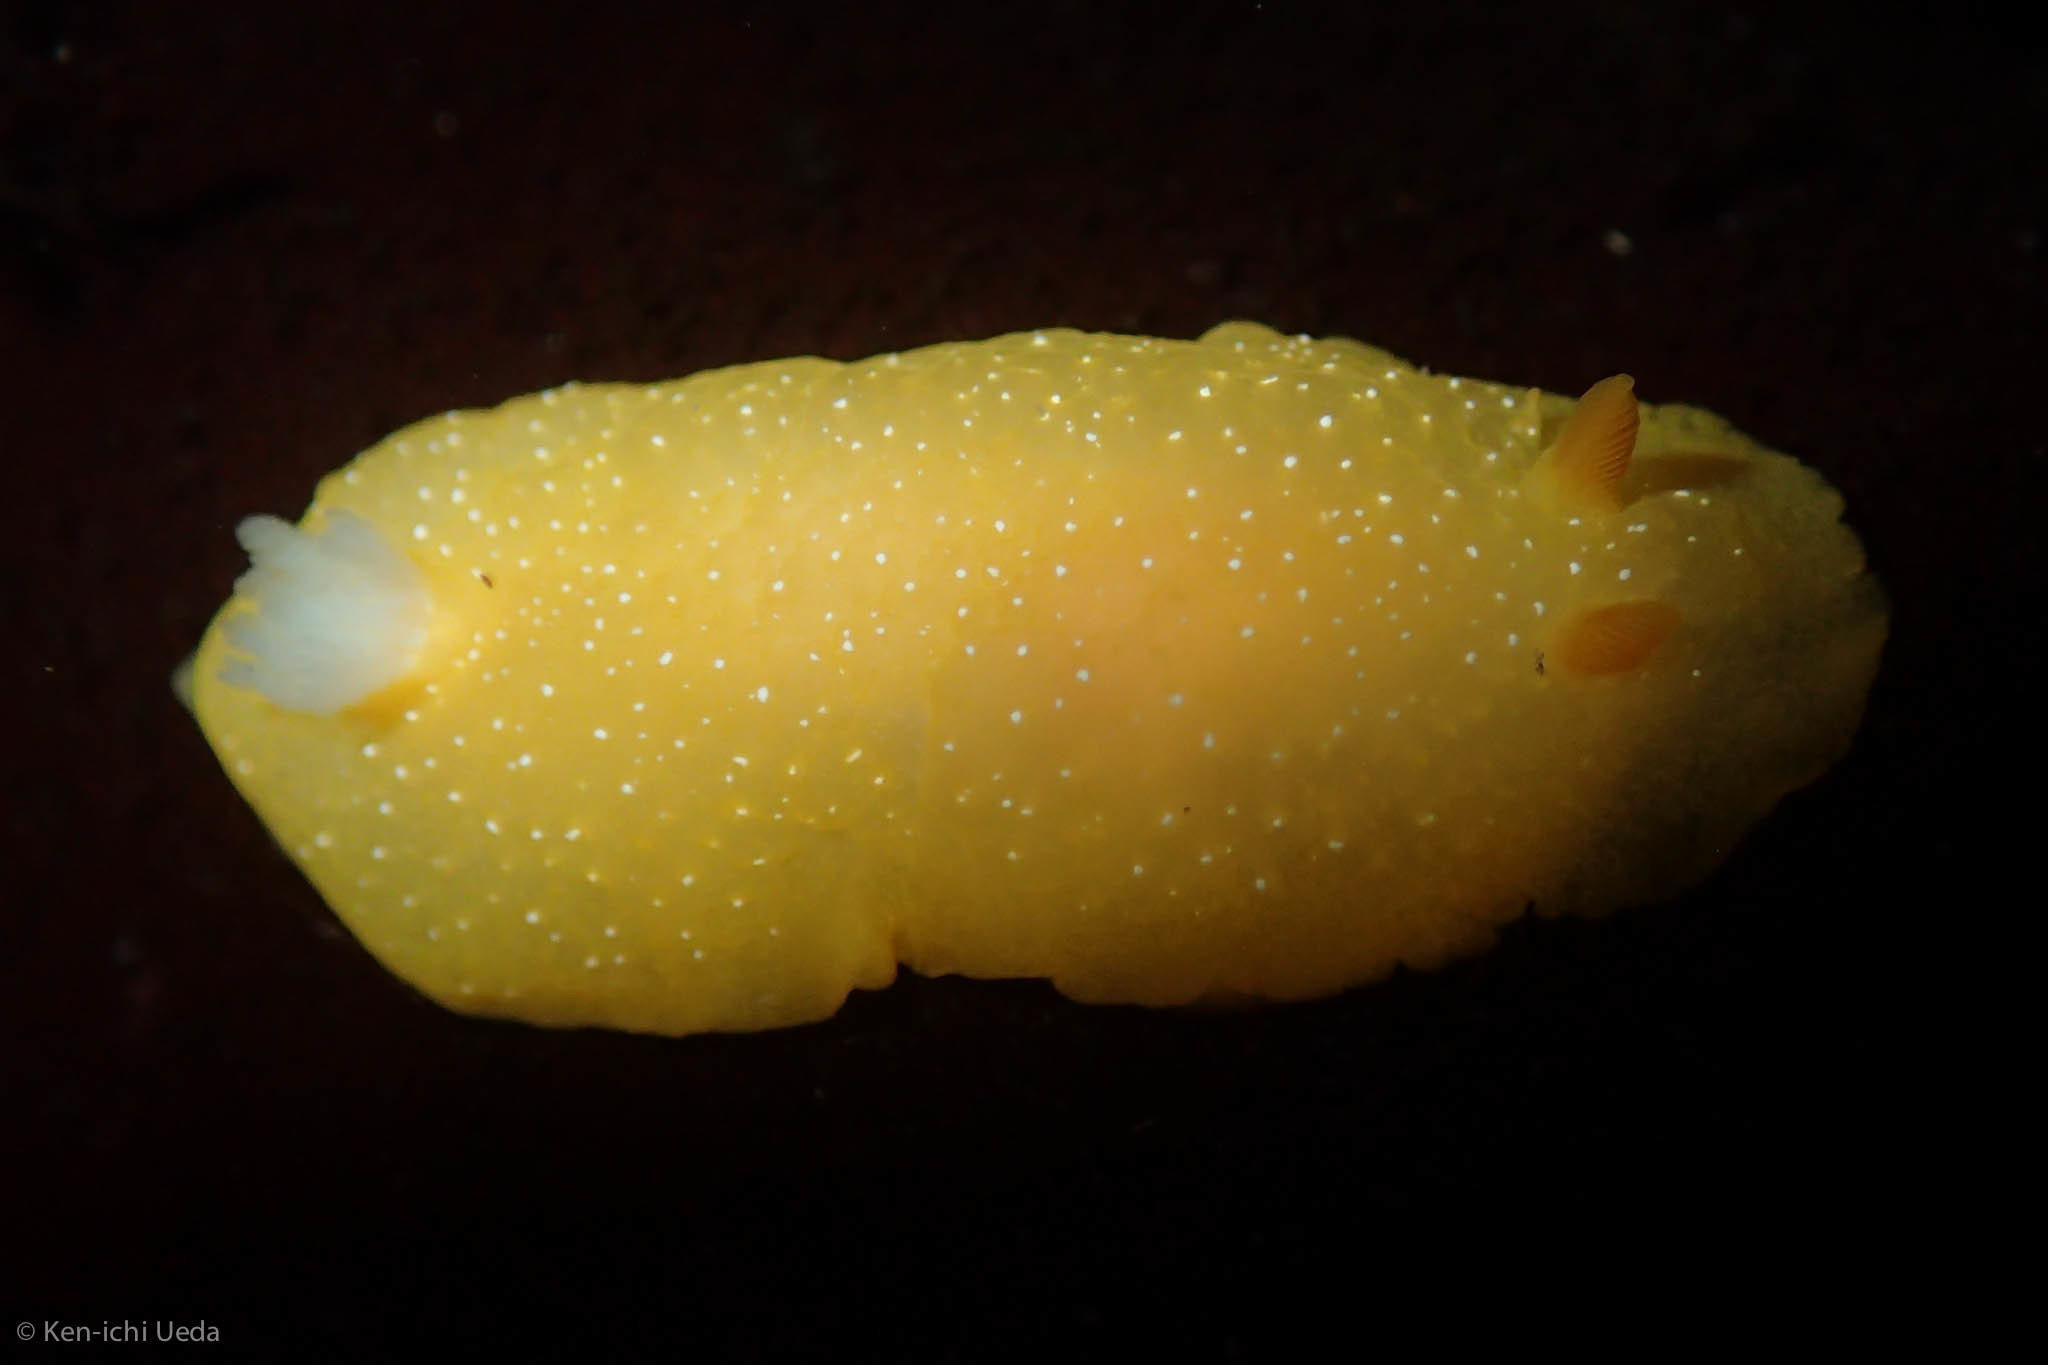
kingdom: Animalia
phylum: Mollusca
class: Gastropoda
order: Nudibranchia
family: Dendrodorididae
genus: Doriopsilla
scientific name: Doriopsilla fulva
